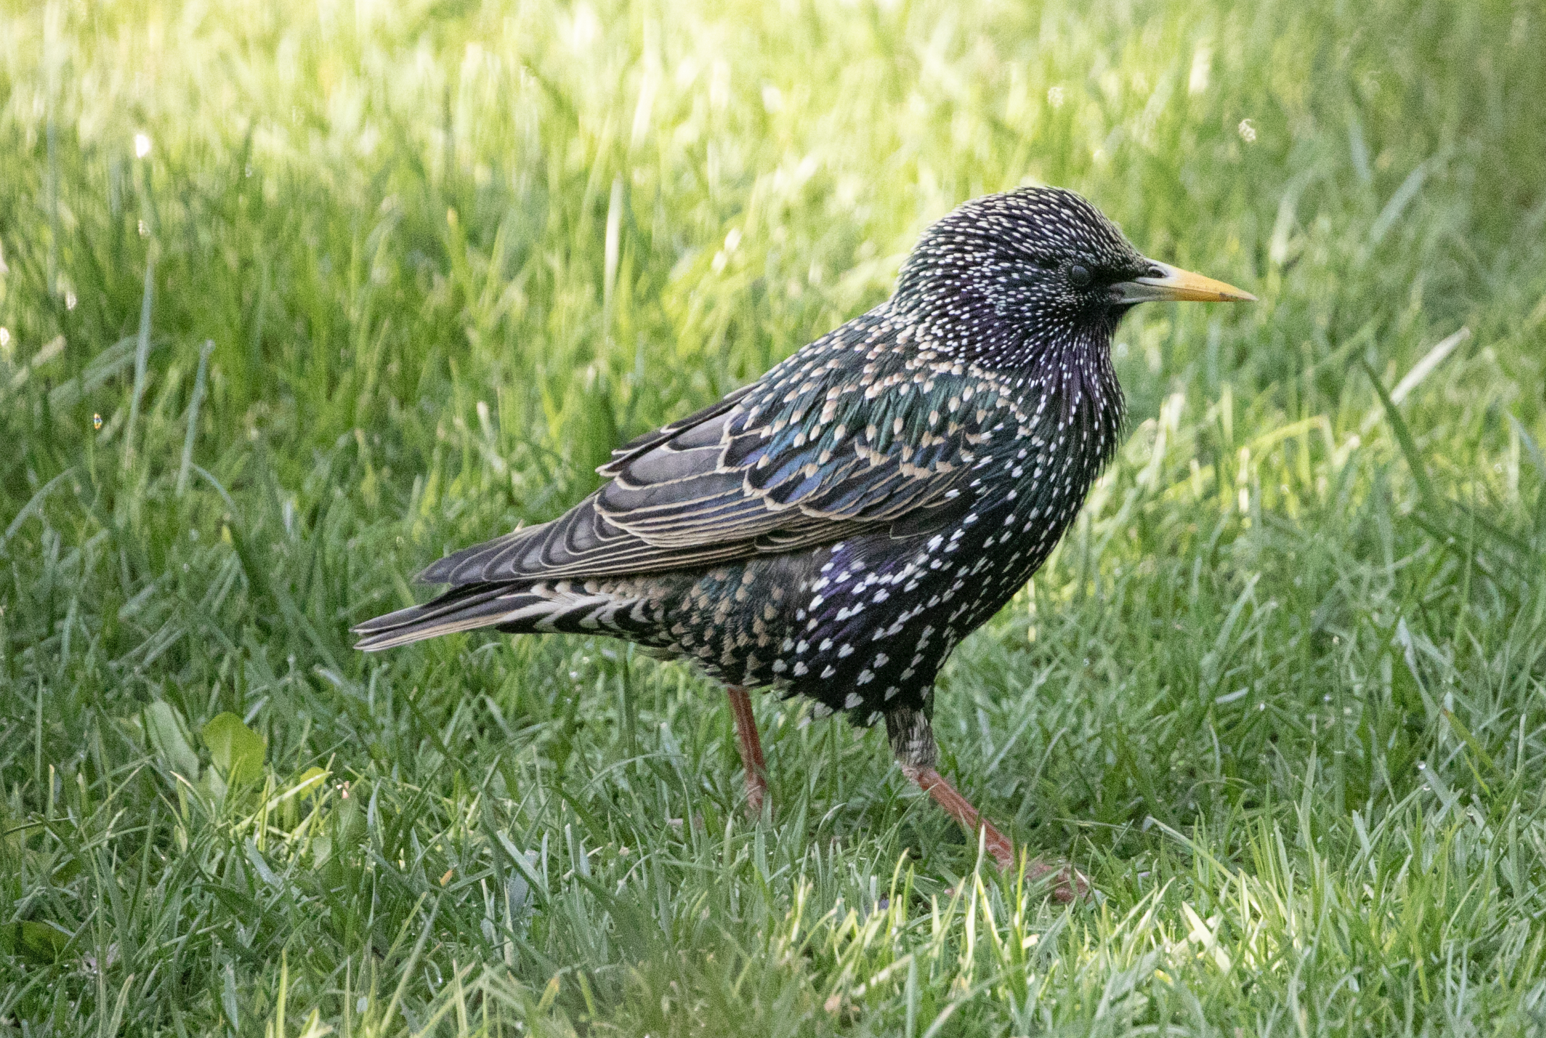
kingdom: Animalia
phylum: Chordata
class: Aves
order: Passeriformes
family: Sturnidae
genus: Sturnus
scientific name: Sturnus vulgaris
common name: Common starling
